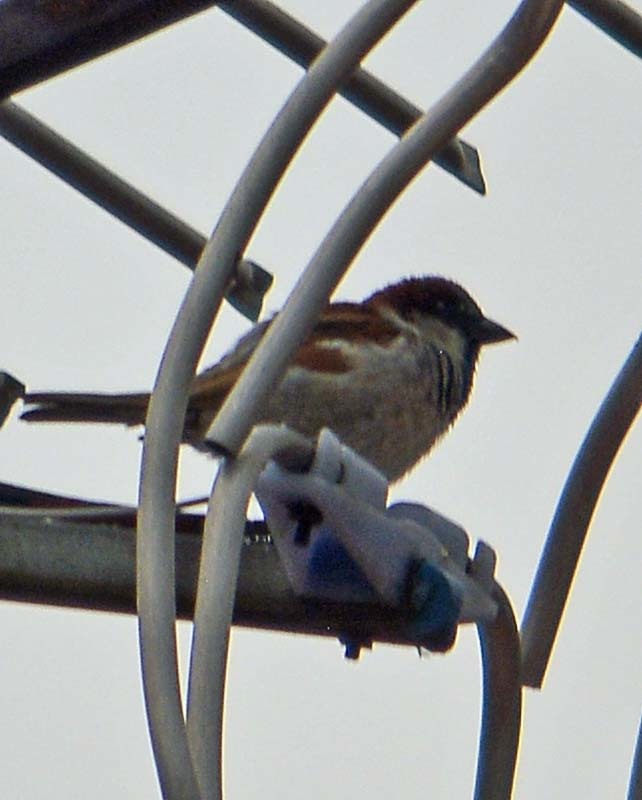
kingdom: Animalia
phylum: Chordata
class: Aves
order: Passeriformes
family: Passeridae
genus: Passer
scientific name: Passer domesticus
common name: House sparrow
